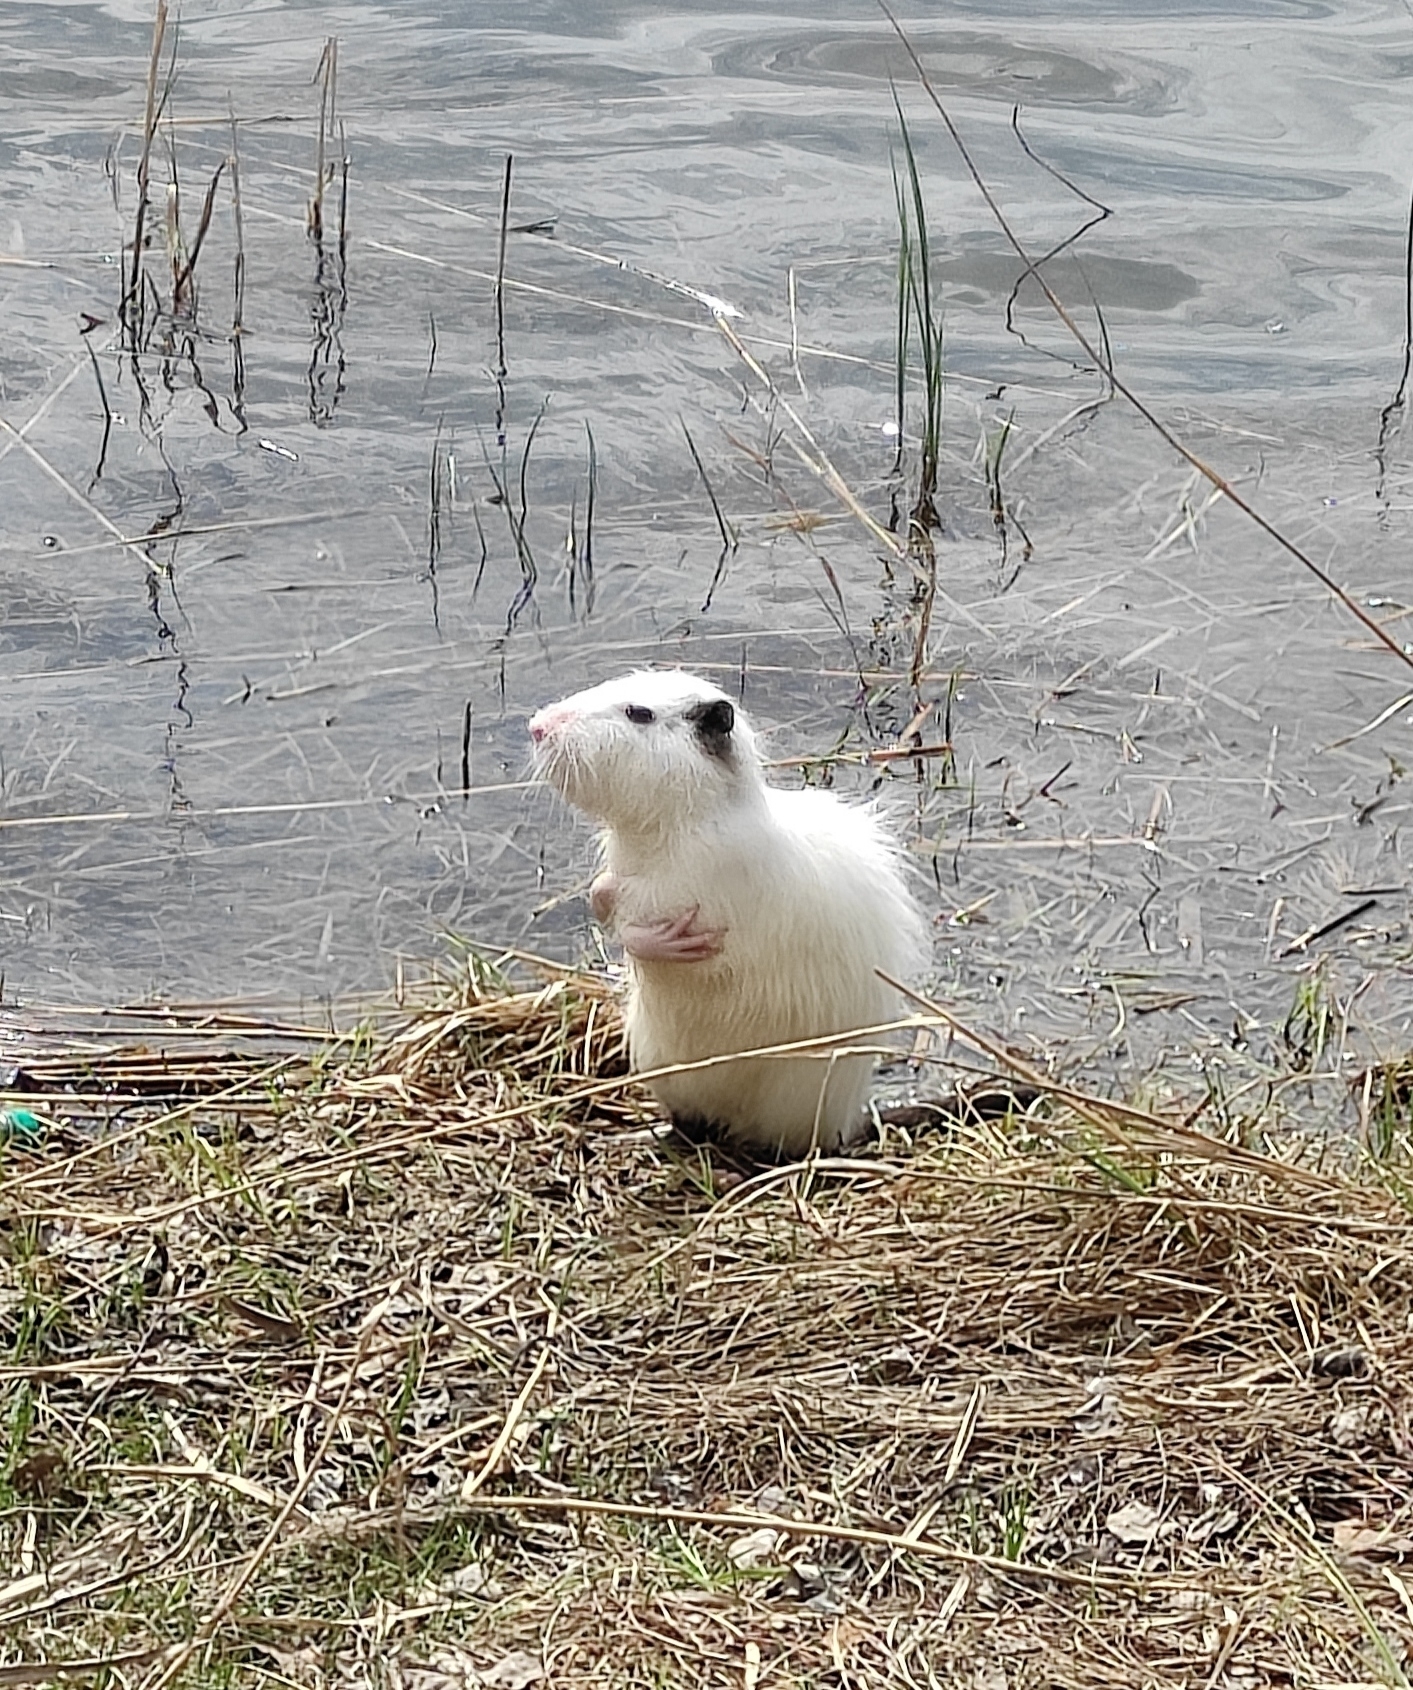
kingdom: Animalia
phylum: Chordata
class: Mammalia
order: Rodentia
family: Myocastoridae
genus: Myocastor
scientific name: Myocastor coypus
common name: Coypu
